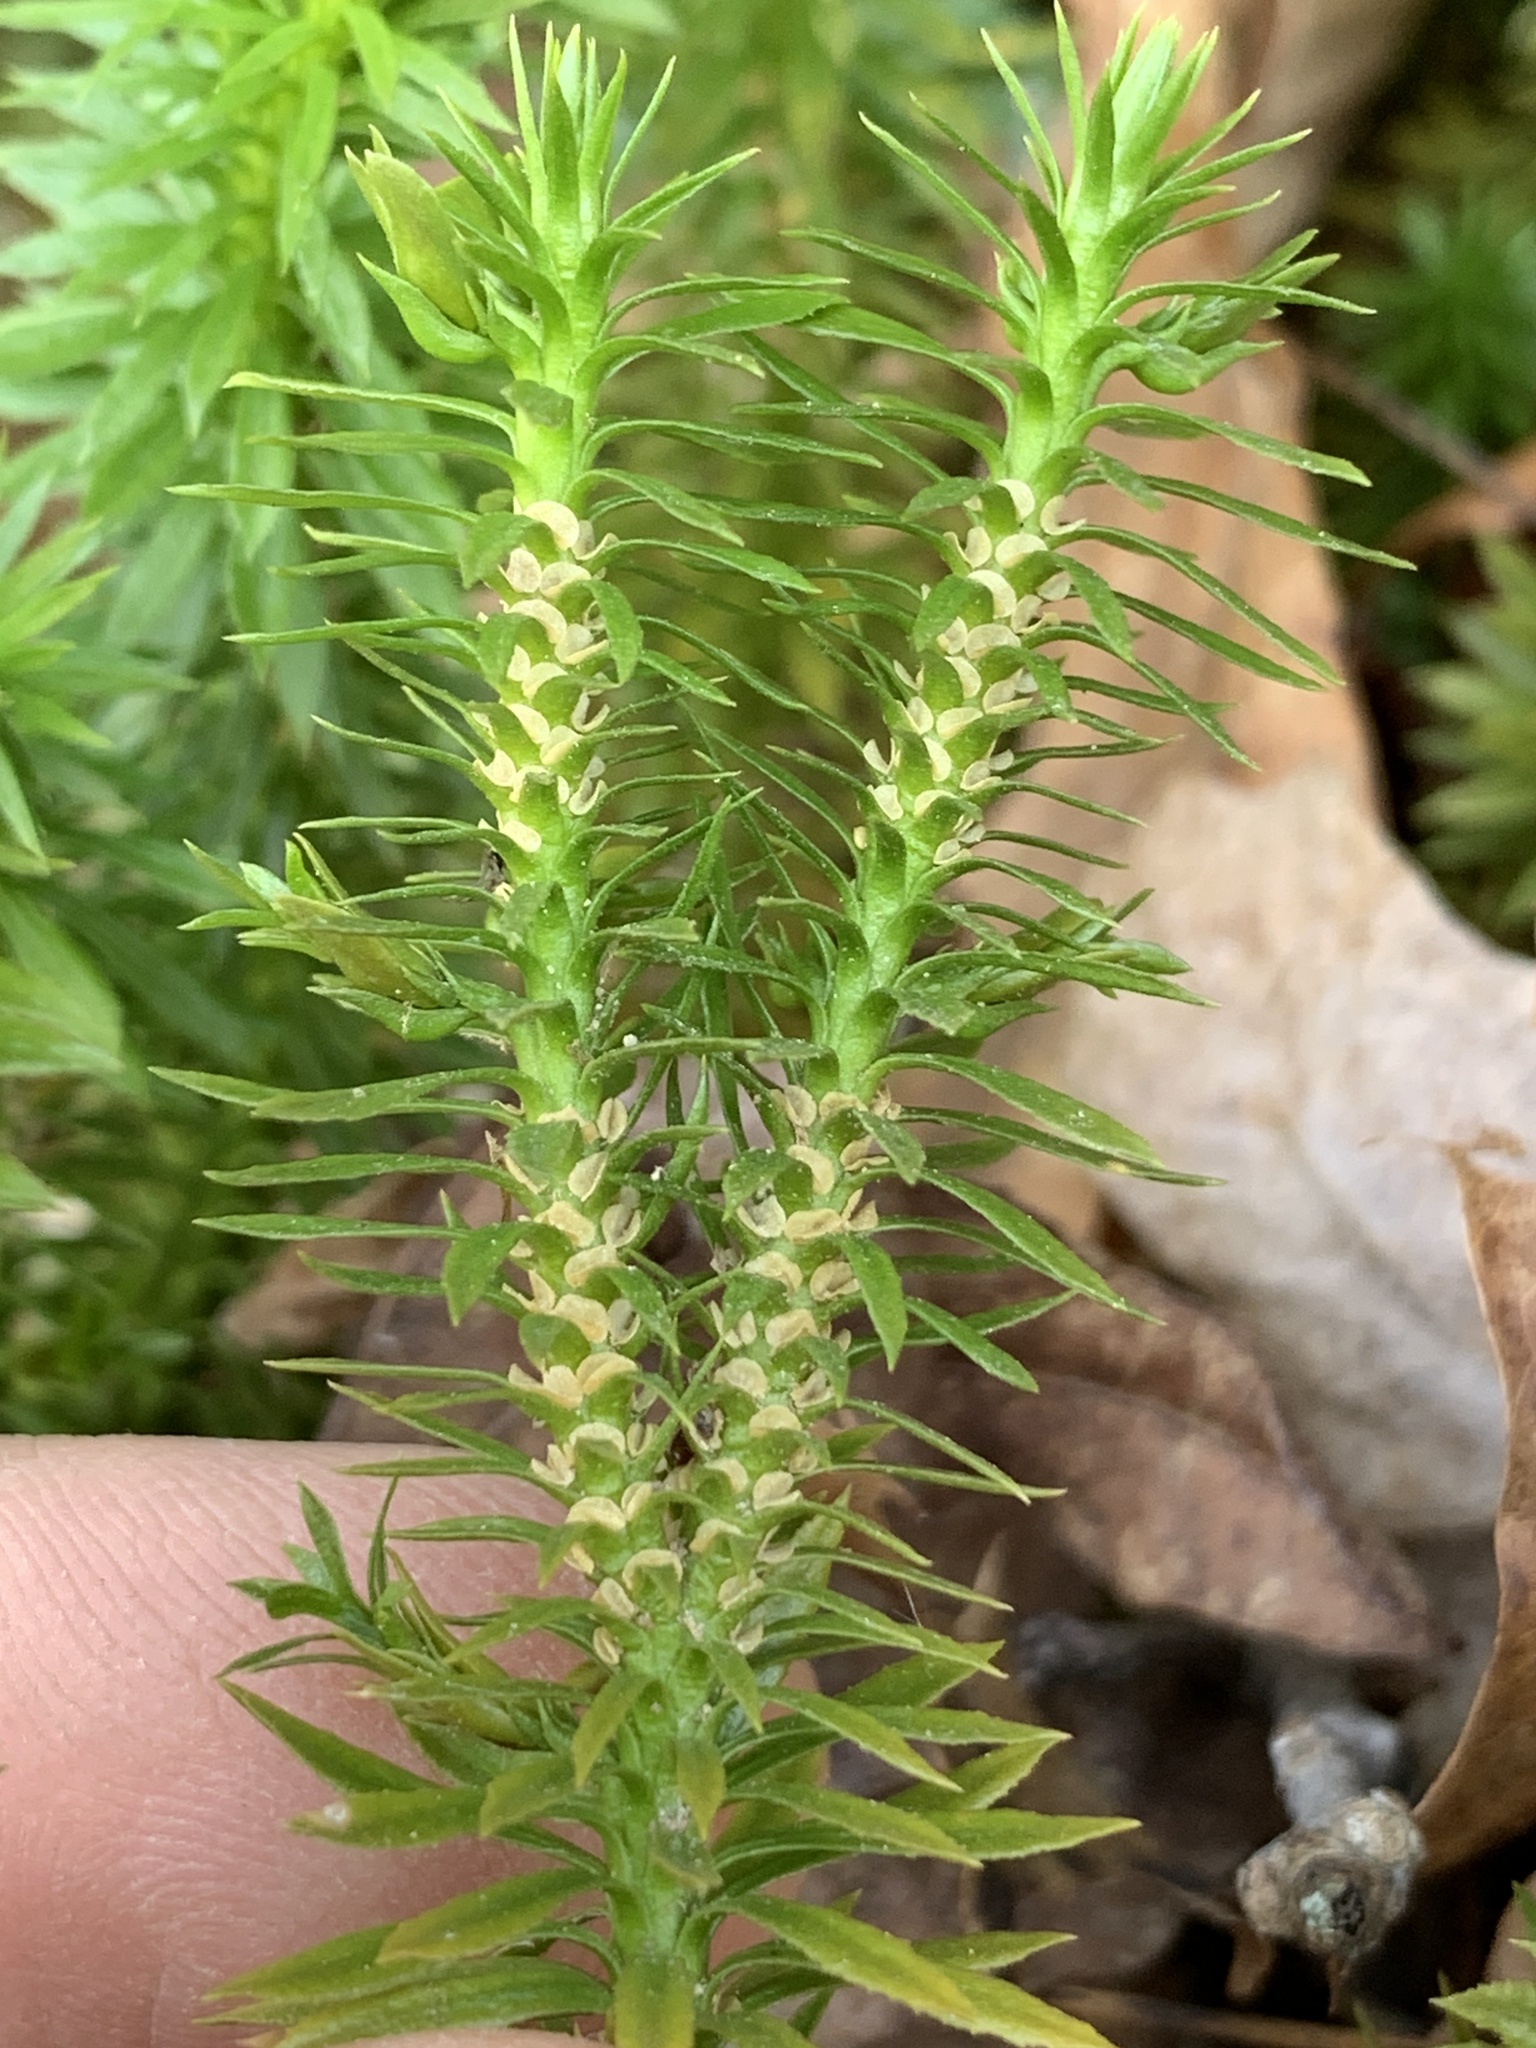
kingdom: Plantae
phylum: Tracheophyta
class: Lycopodiopsida
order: Lycopodiales
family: Lycopodiaceae
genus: Huperzia
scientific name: Huperzia lucidula
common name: Shining clubmoss
